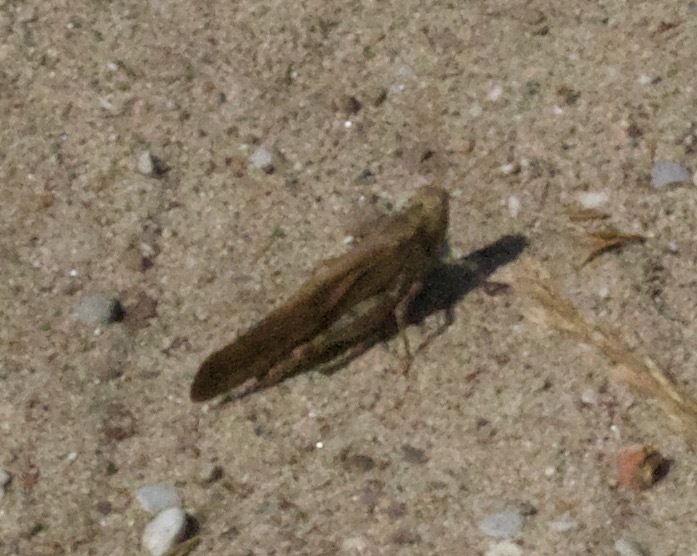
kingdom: Animalia
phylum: Arthropoda
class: Insecta
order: Orthoptera
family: Acrididae
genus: Dissosteira
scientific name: Dissosteira carolina
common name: Carolina grasshopper
